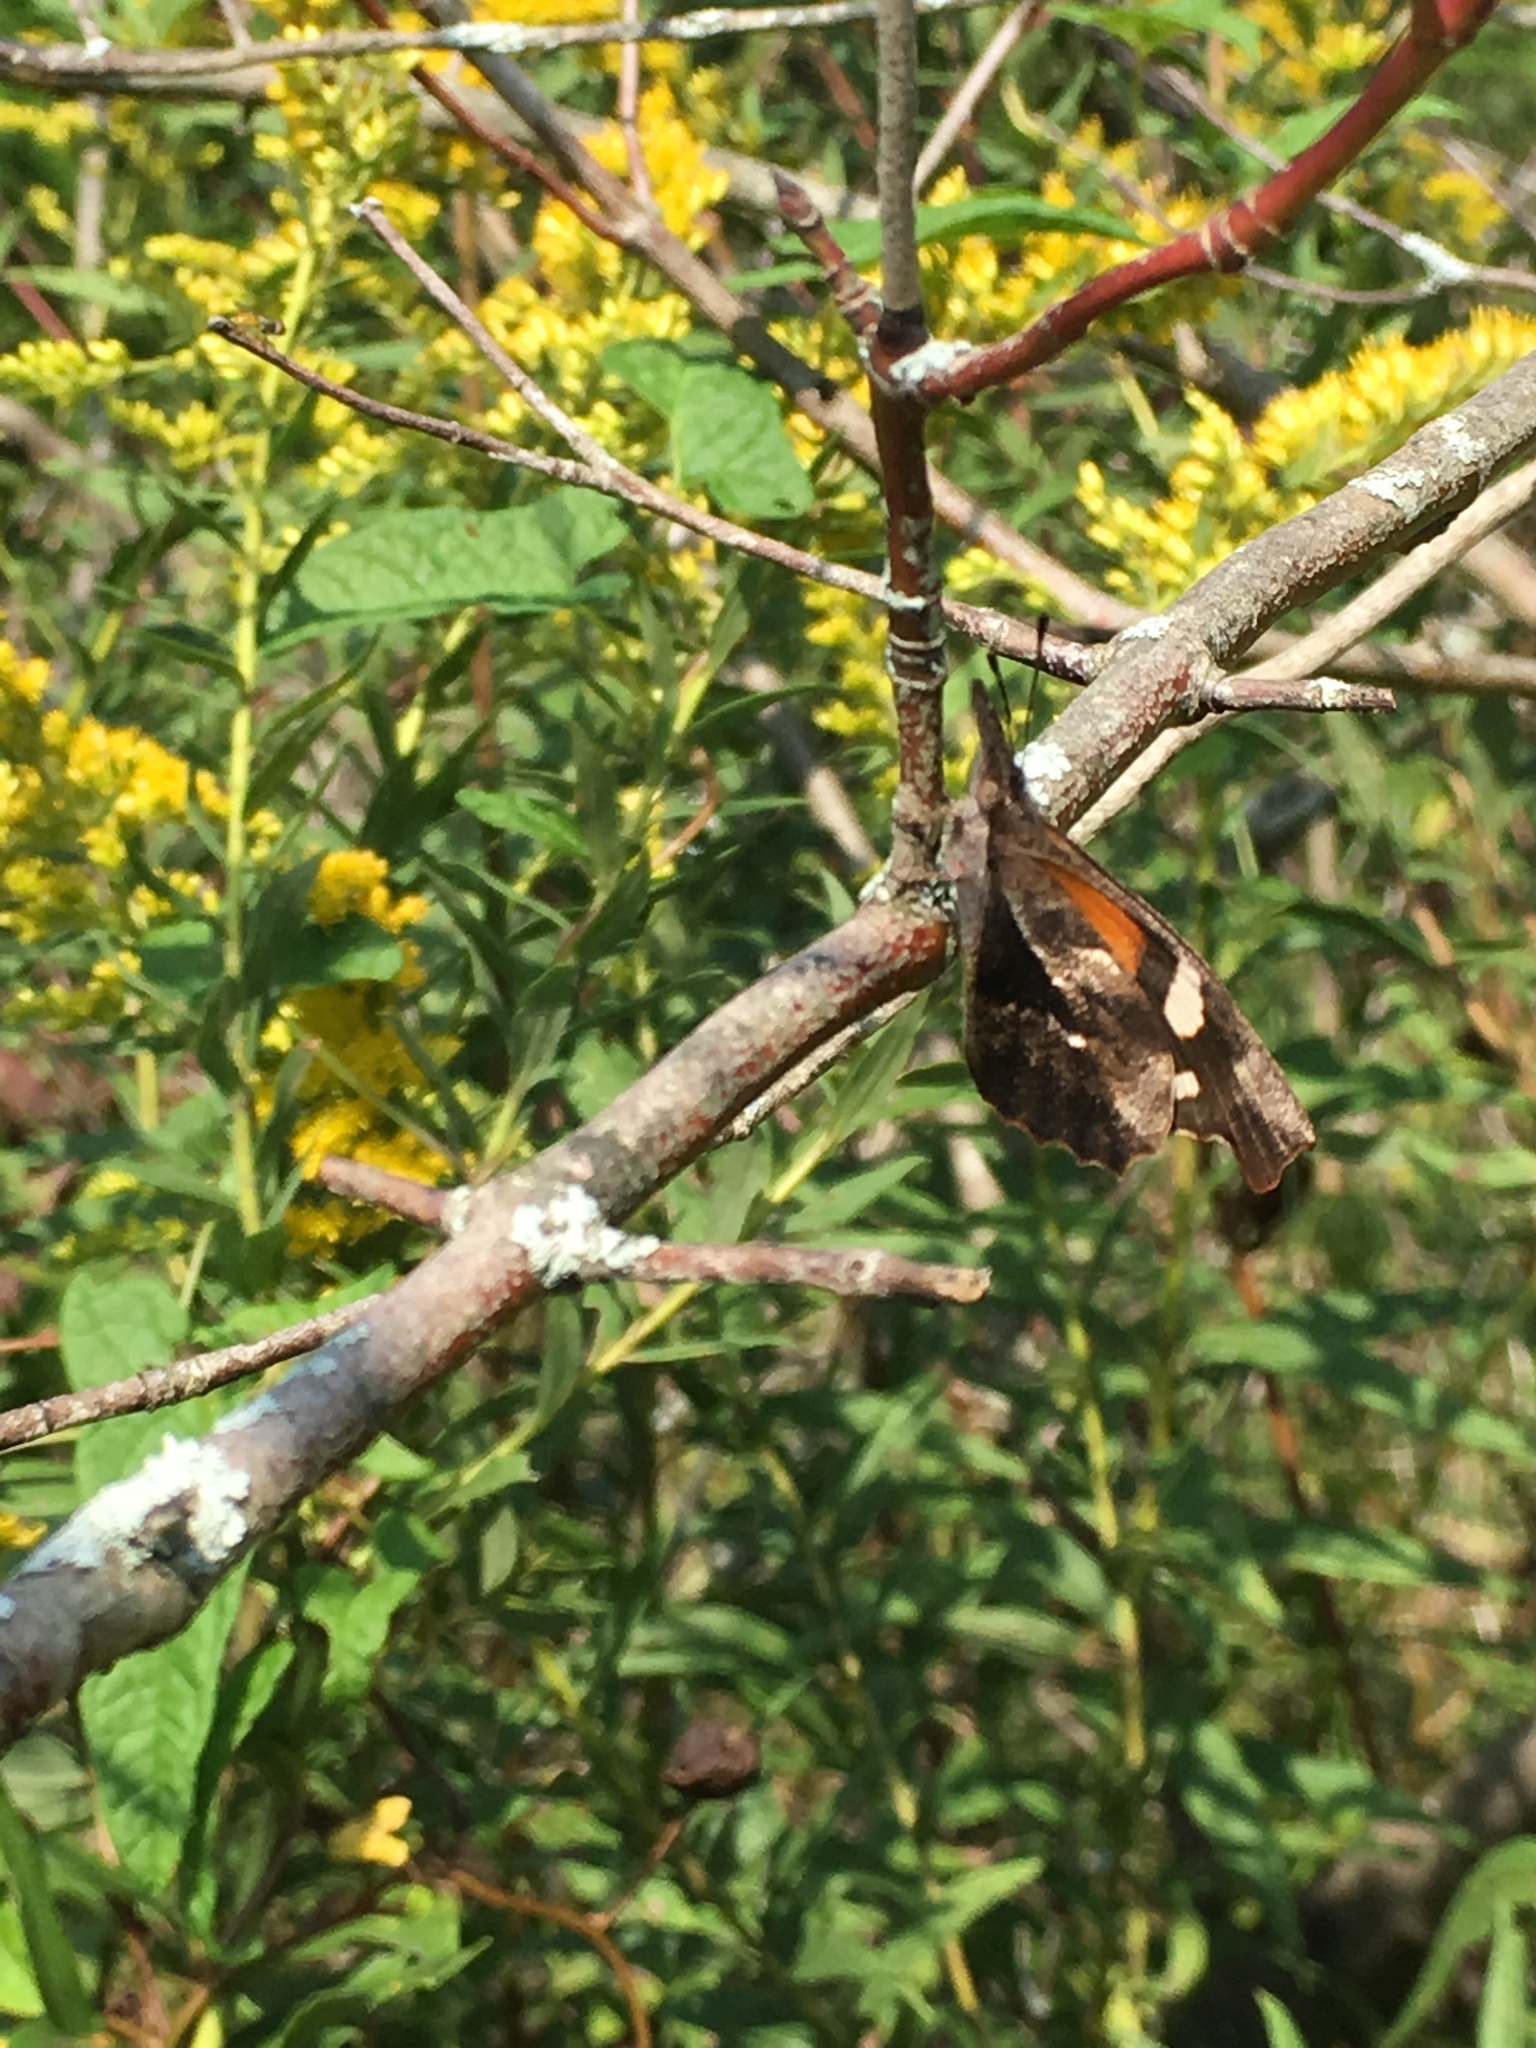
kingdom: Animalia
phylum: Arthropoda
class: Insecta
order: Lepidoptera
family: Nymphalidae
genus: Libytheana
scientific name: Libytheana carinenta
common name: American snout
